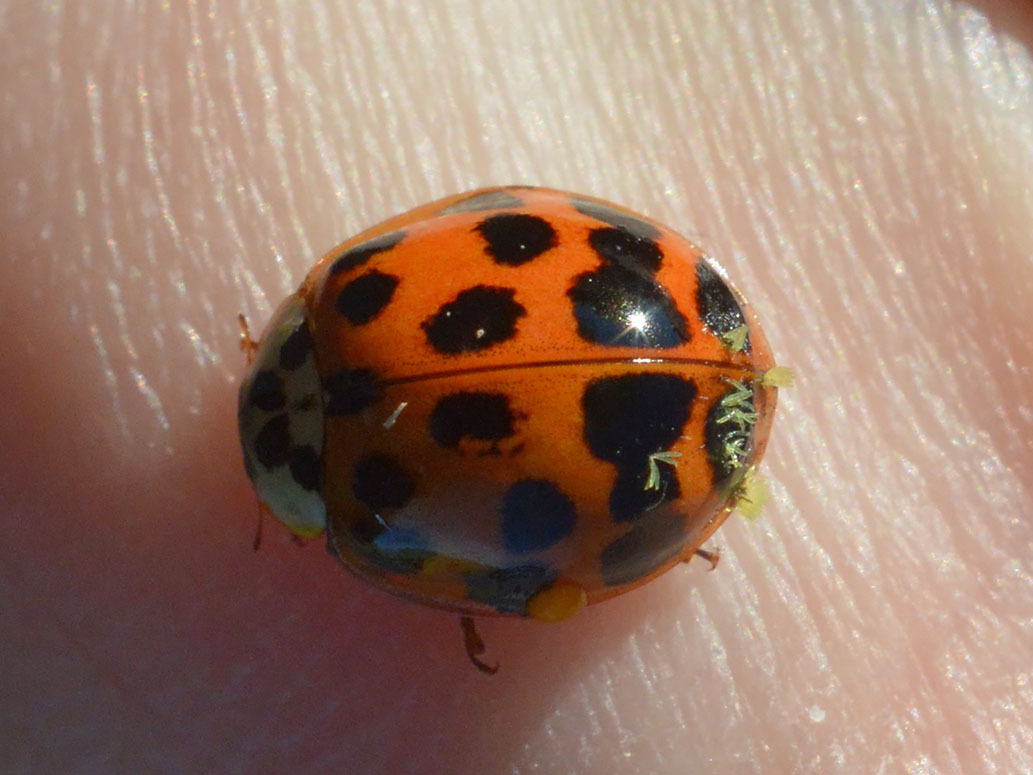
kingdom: Animalia
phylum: Arthropoda
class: Insecta
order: Coleoptera
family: Coccinellidae
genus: Harmonia
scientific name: Harmonia axyridis
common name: Harlequin ladybird
